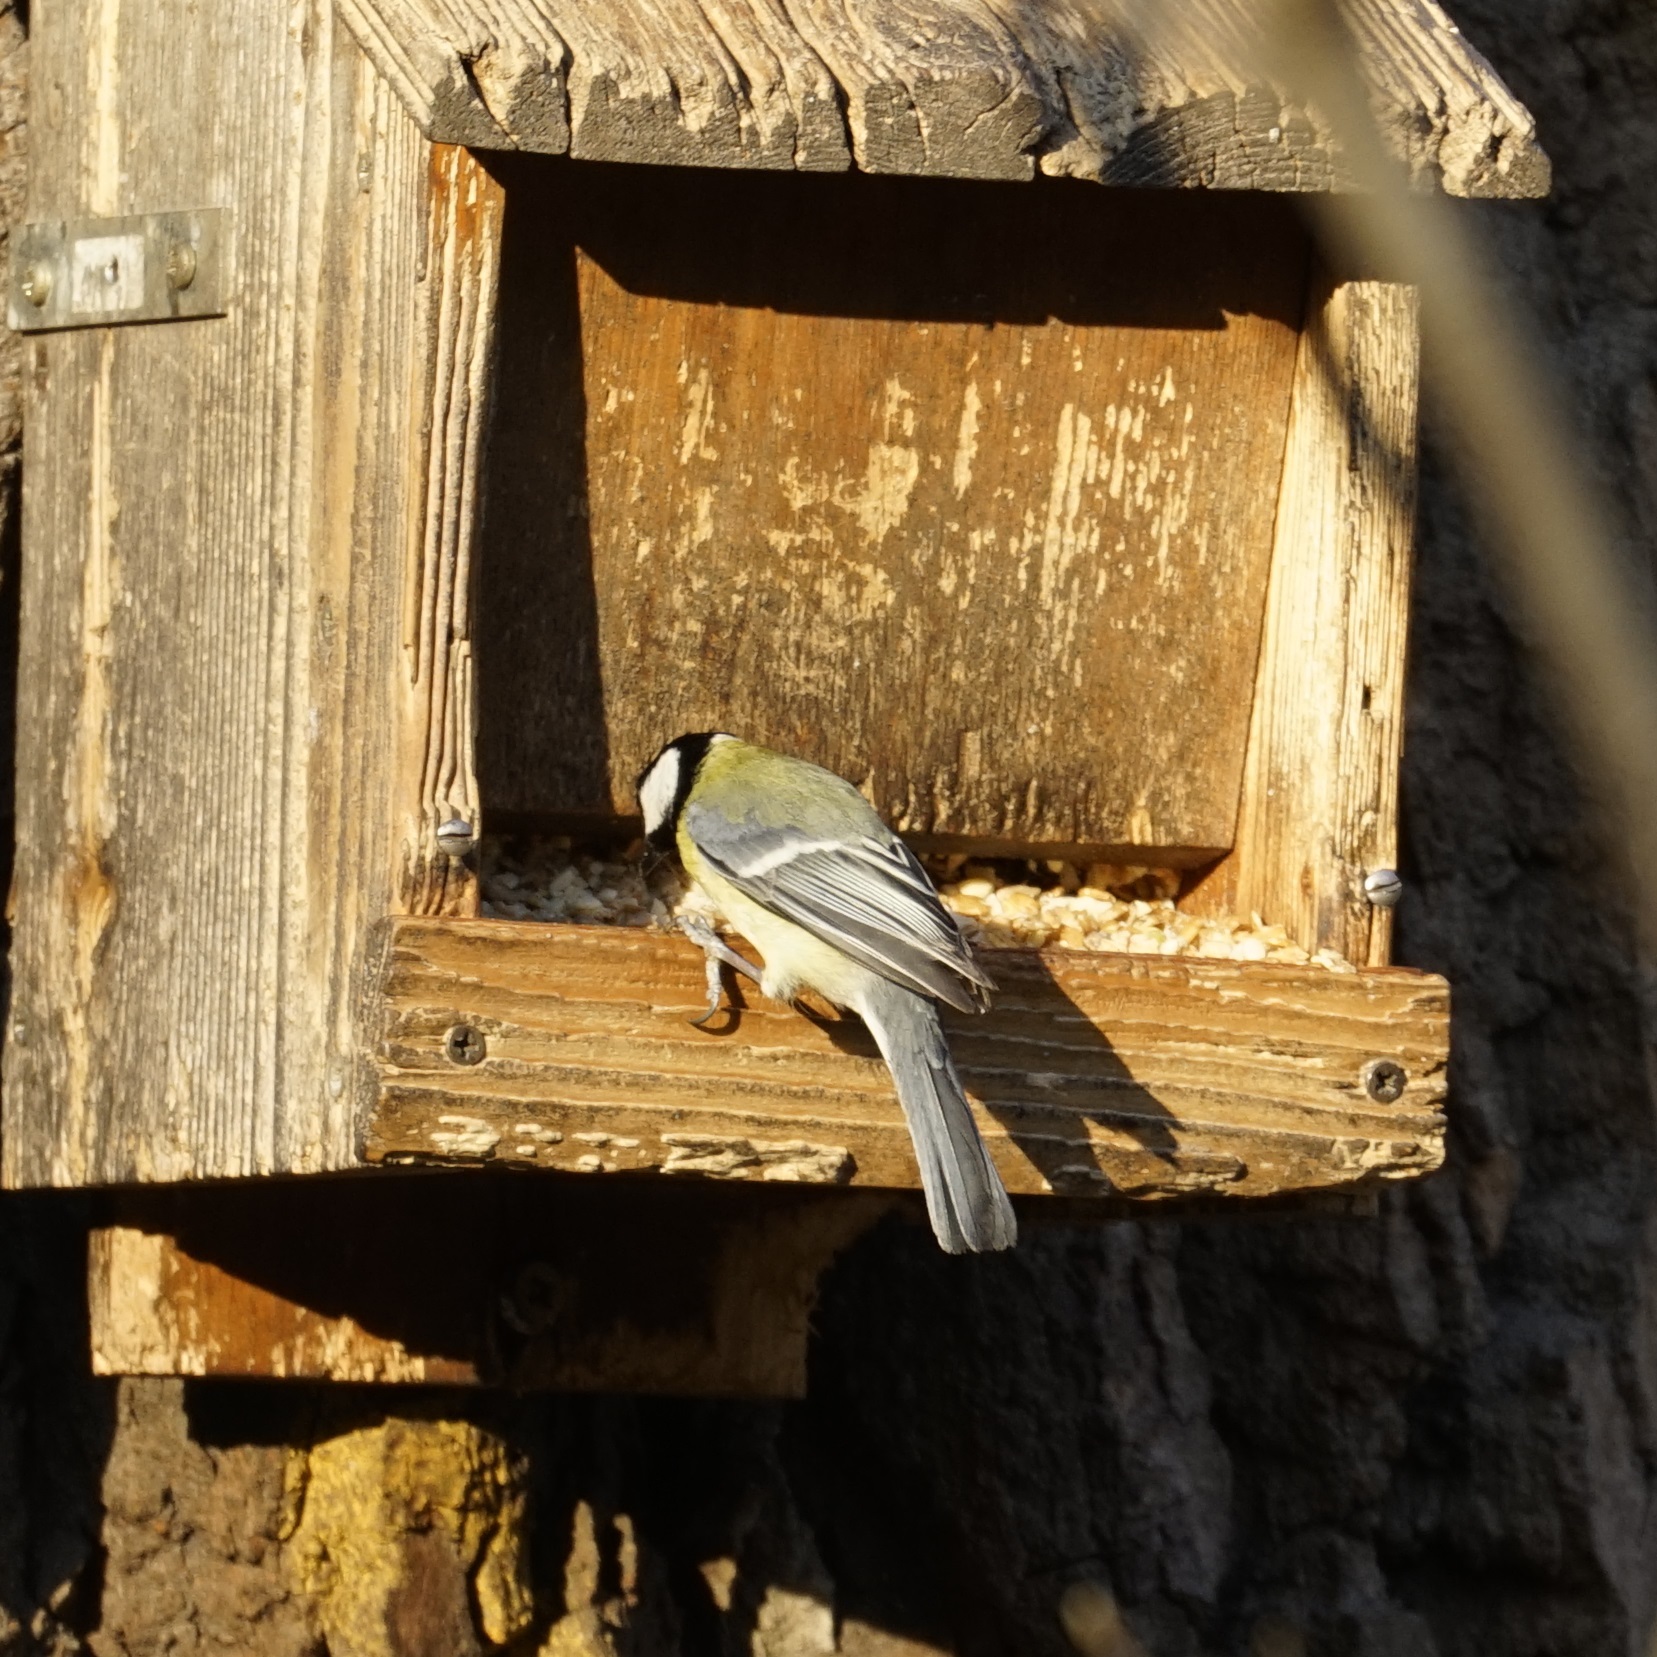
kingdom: Animalia
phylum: Chordata
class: Aves
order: Passeriformes
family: Paridae
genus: Parus
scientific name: Parus major
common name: Great tit
